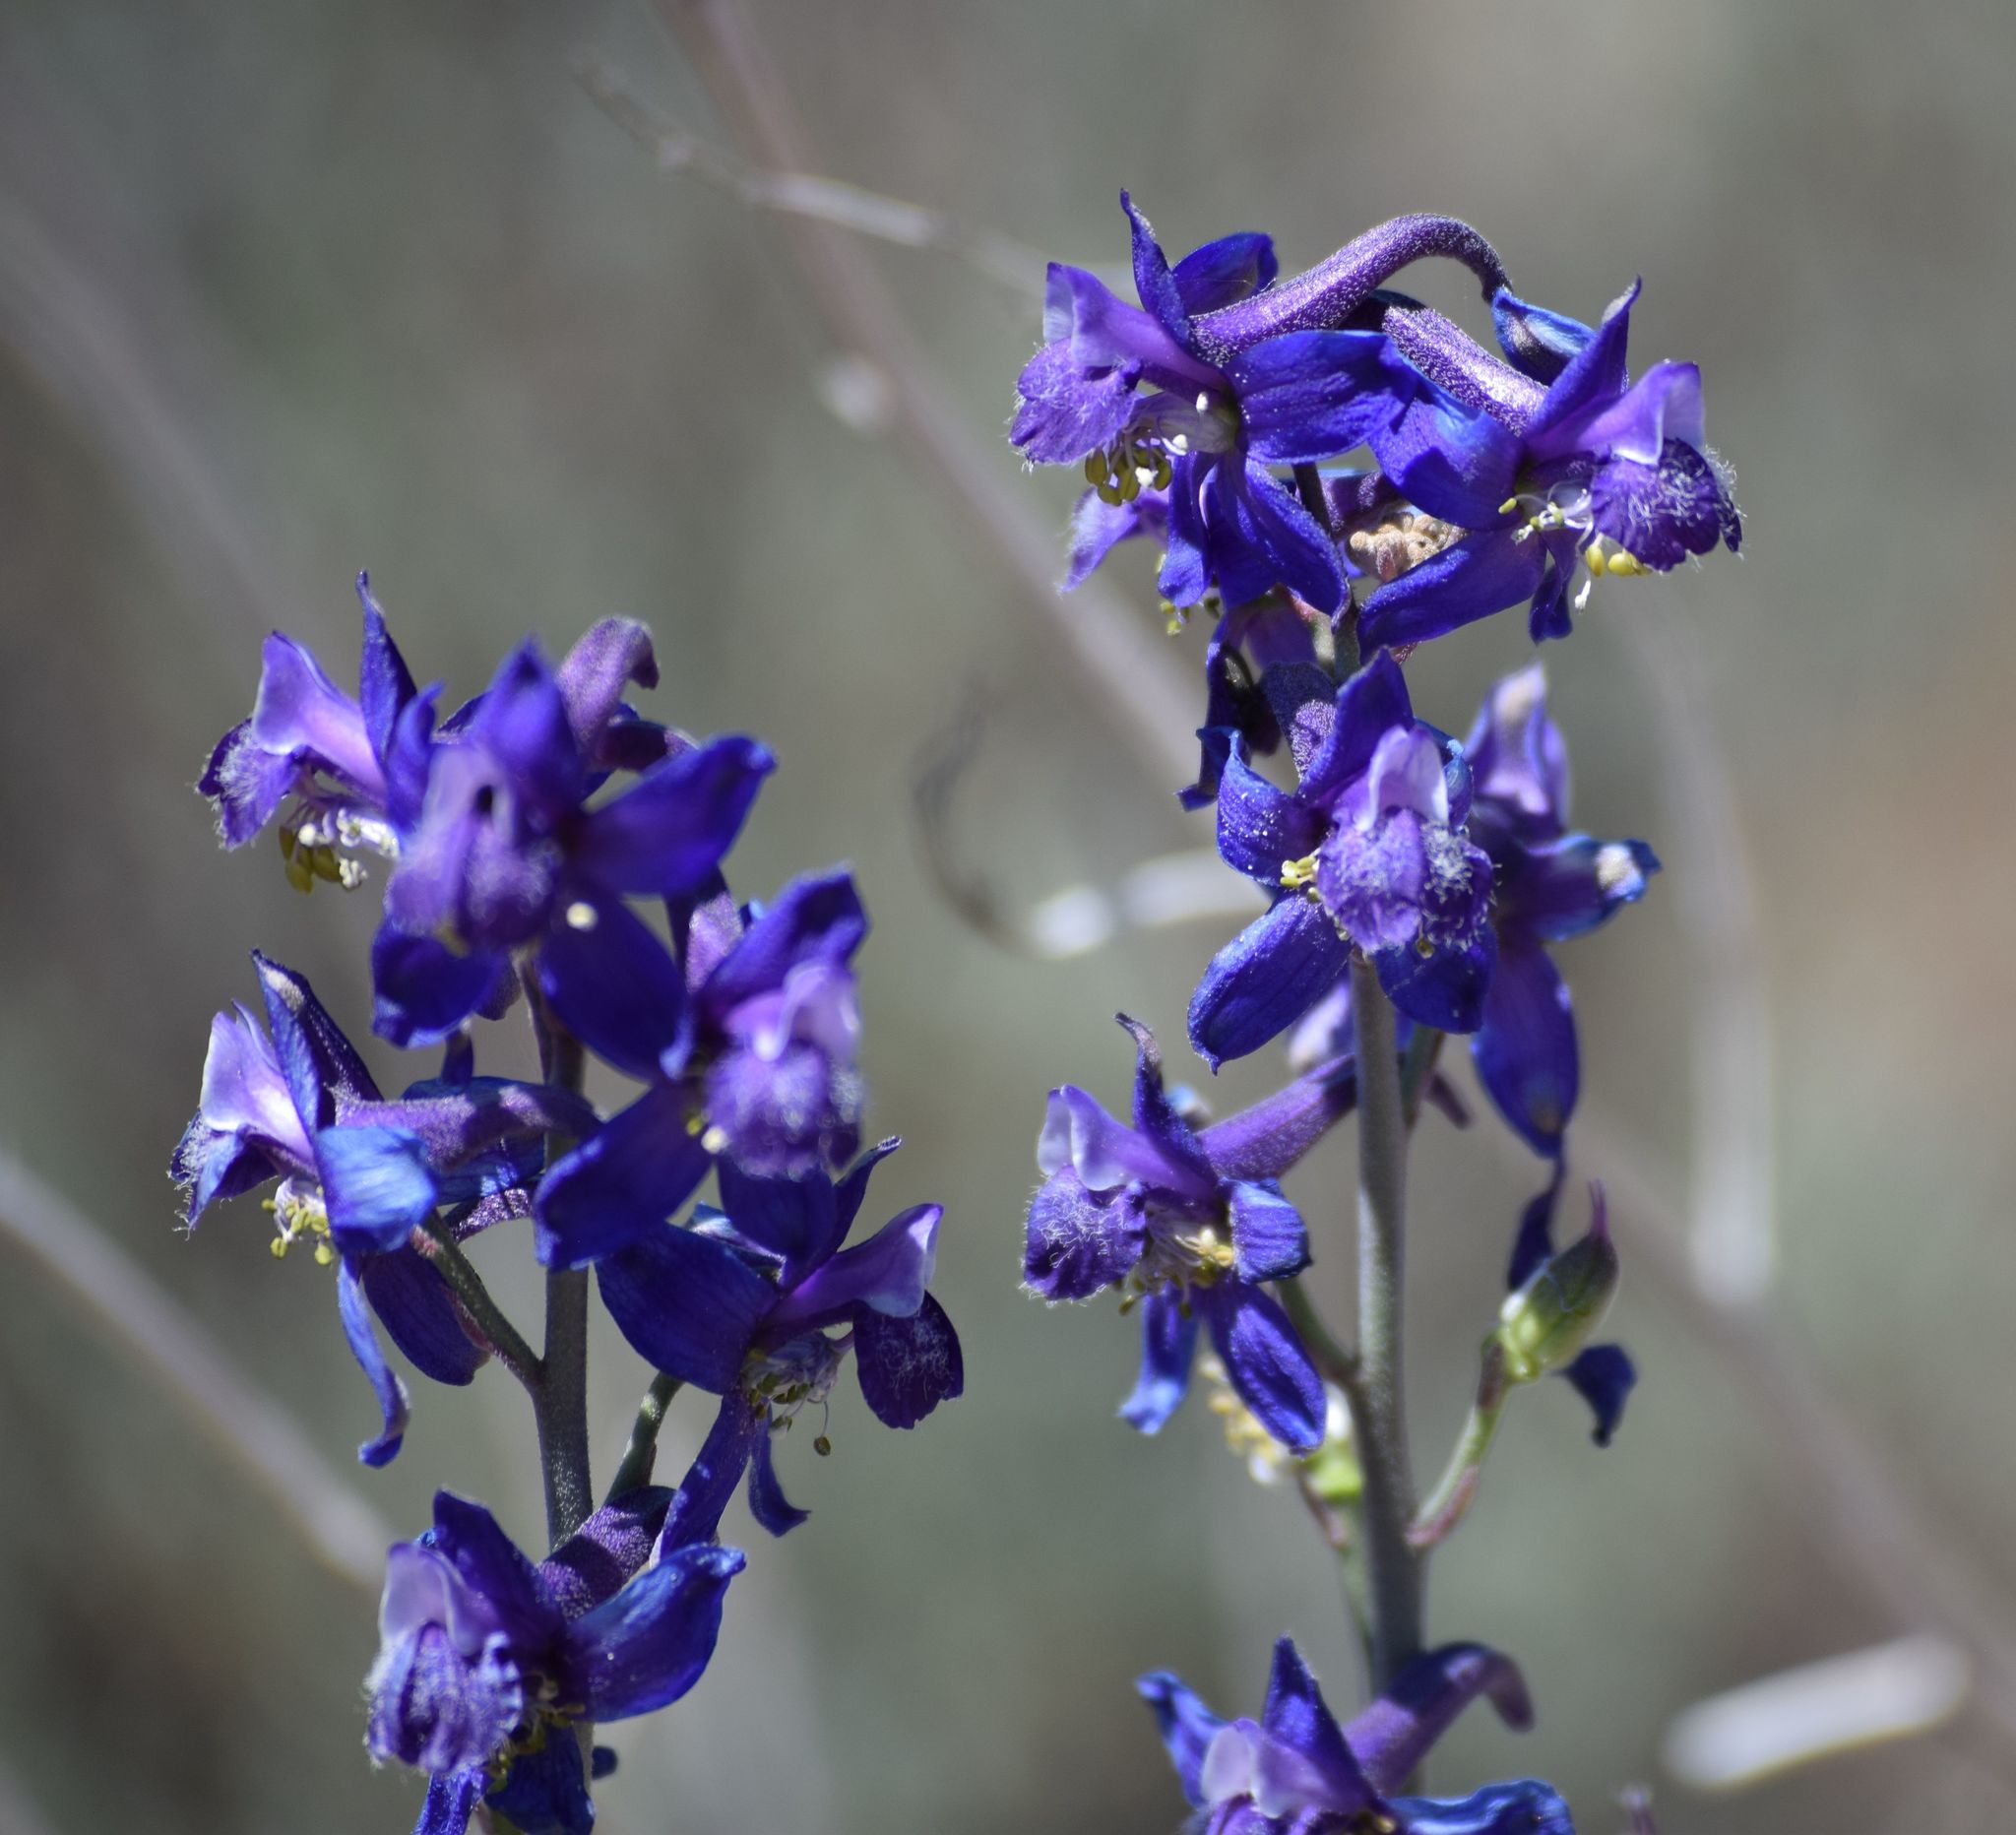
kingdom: Plantae
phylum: Tracheophyta
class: Magnoliopsida
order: Ranunculales
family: Ranunculaceae
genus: Delphinium
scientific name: Delphinium parishii
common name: Apache larkspur
